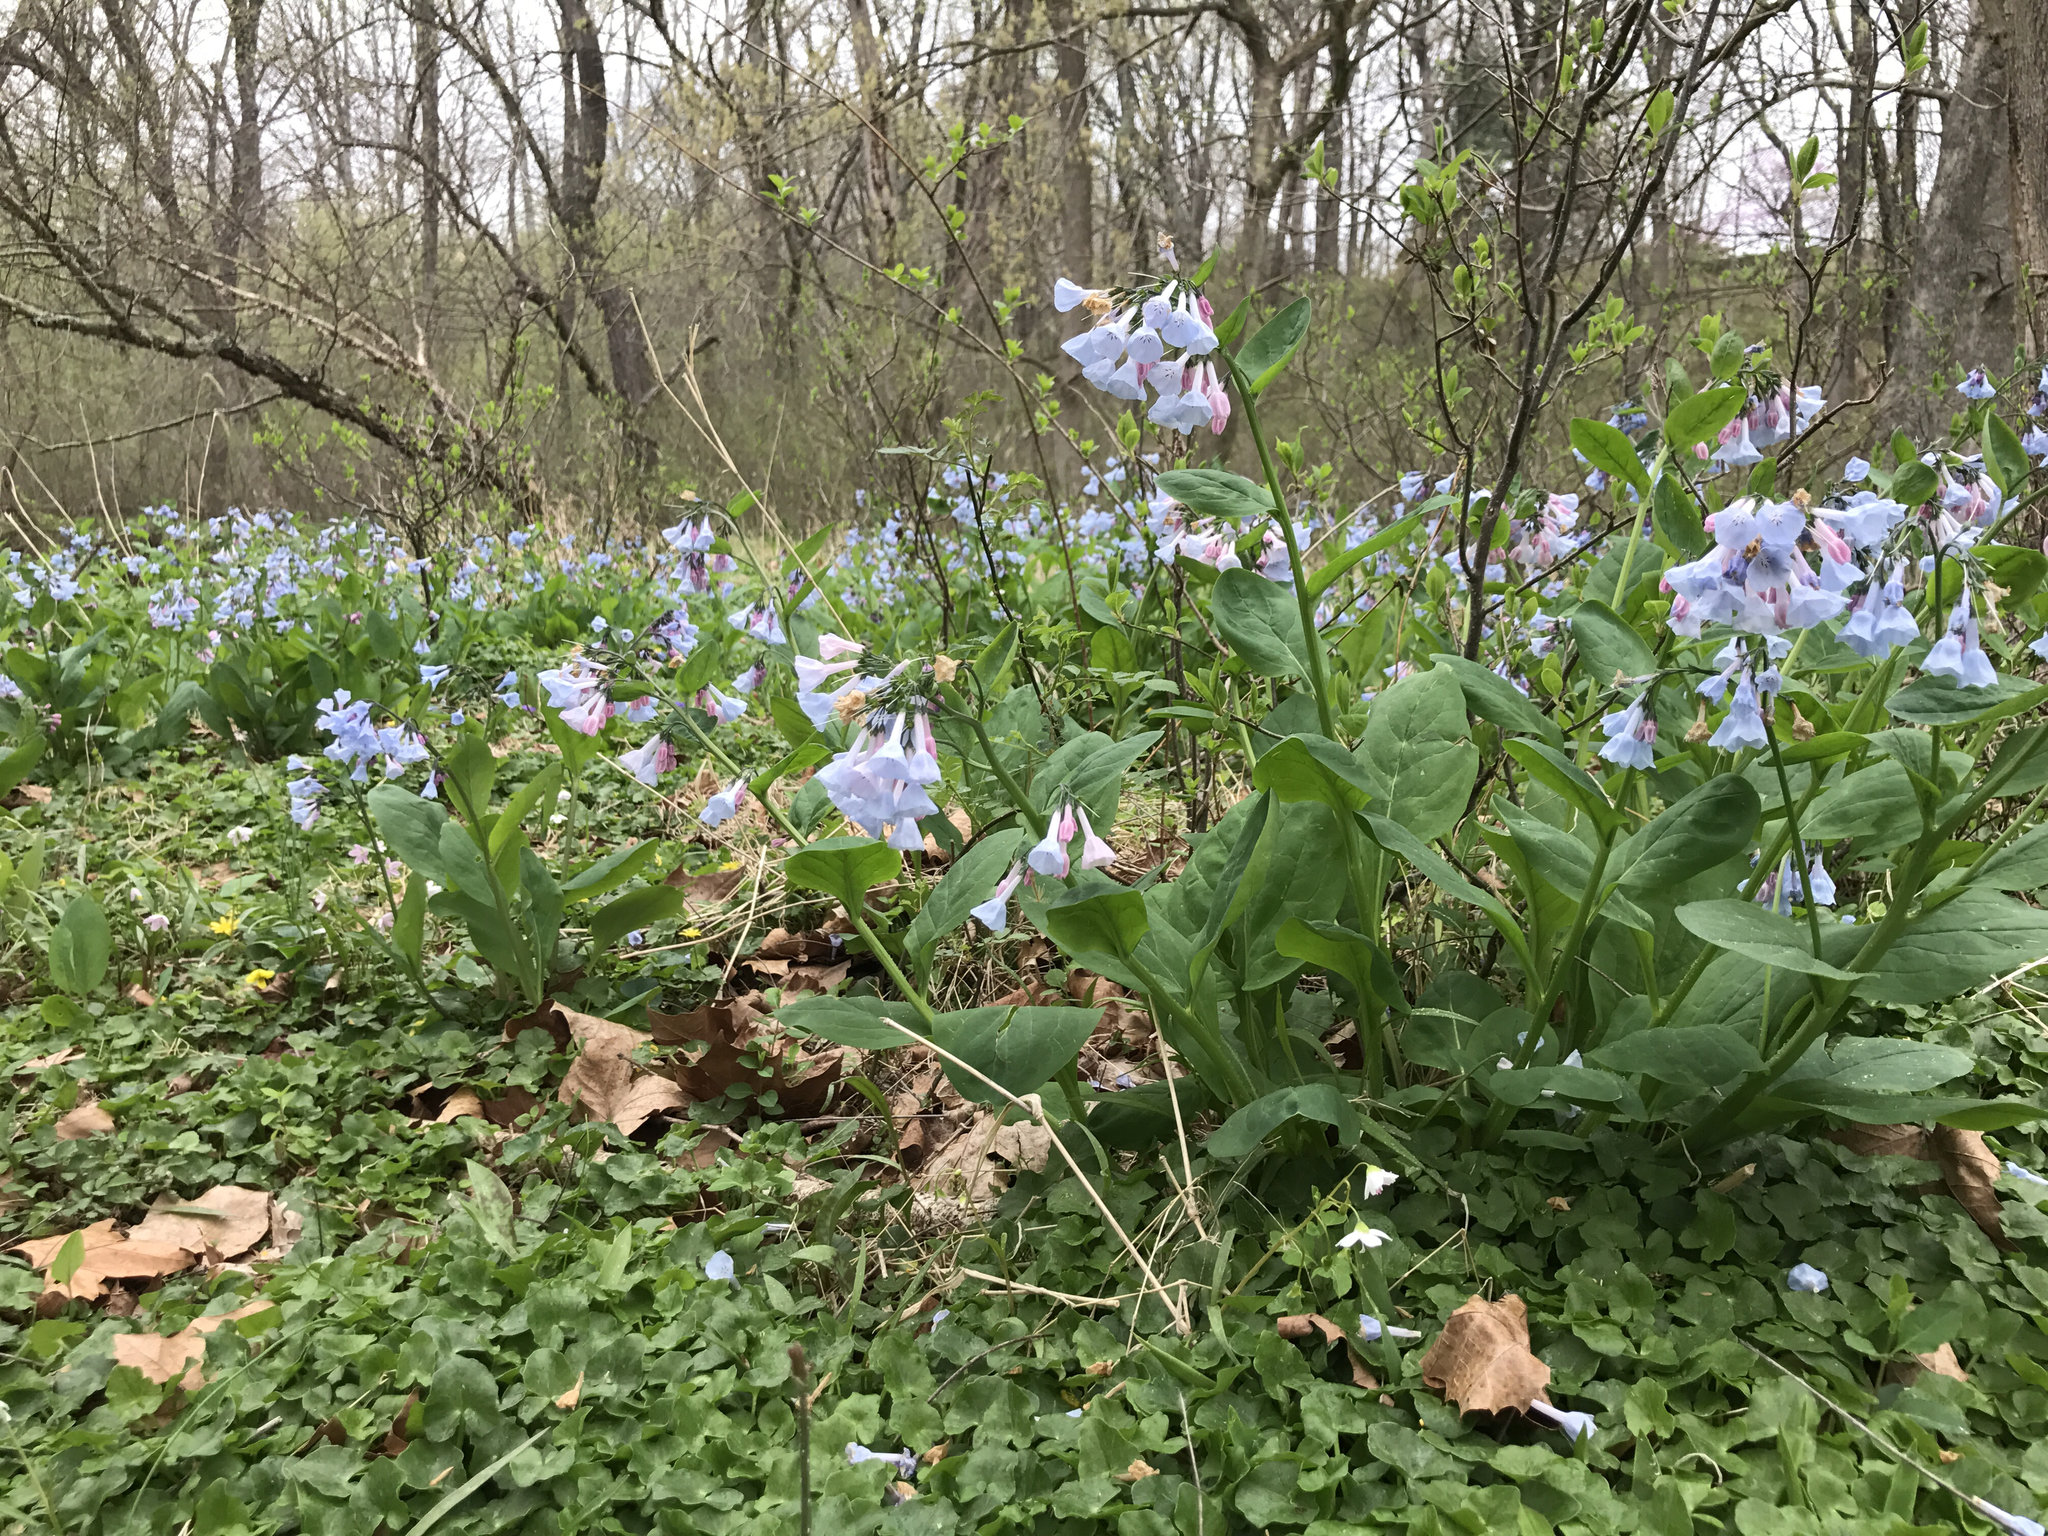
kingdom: Plantae
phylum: Tracheophyta
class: Magnoliopsida
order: Boraginales
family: Boraginaceae
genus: Mertensia
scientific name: Mertensia virginica
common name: Virginia bluebells
